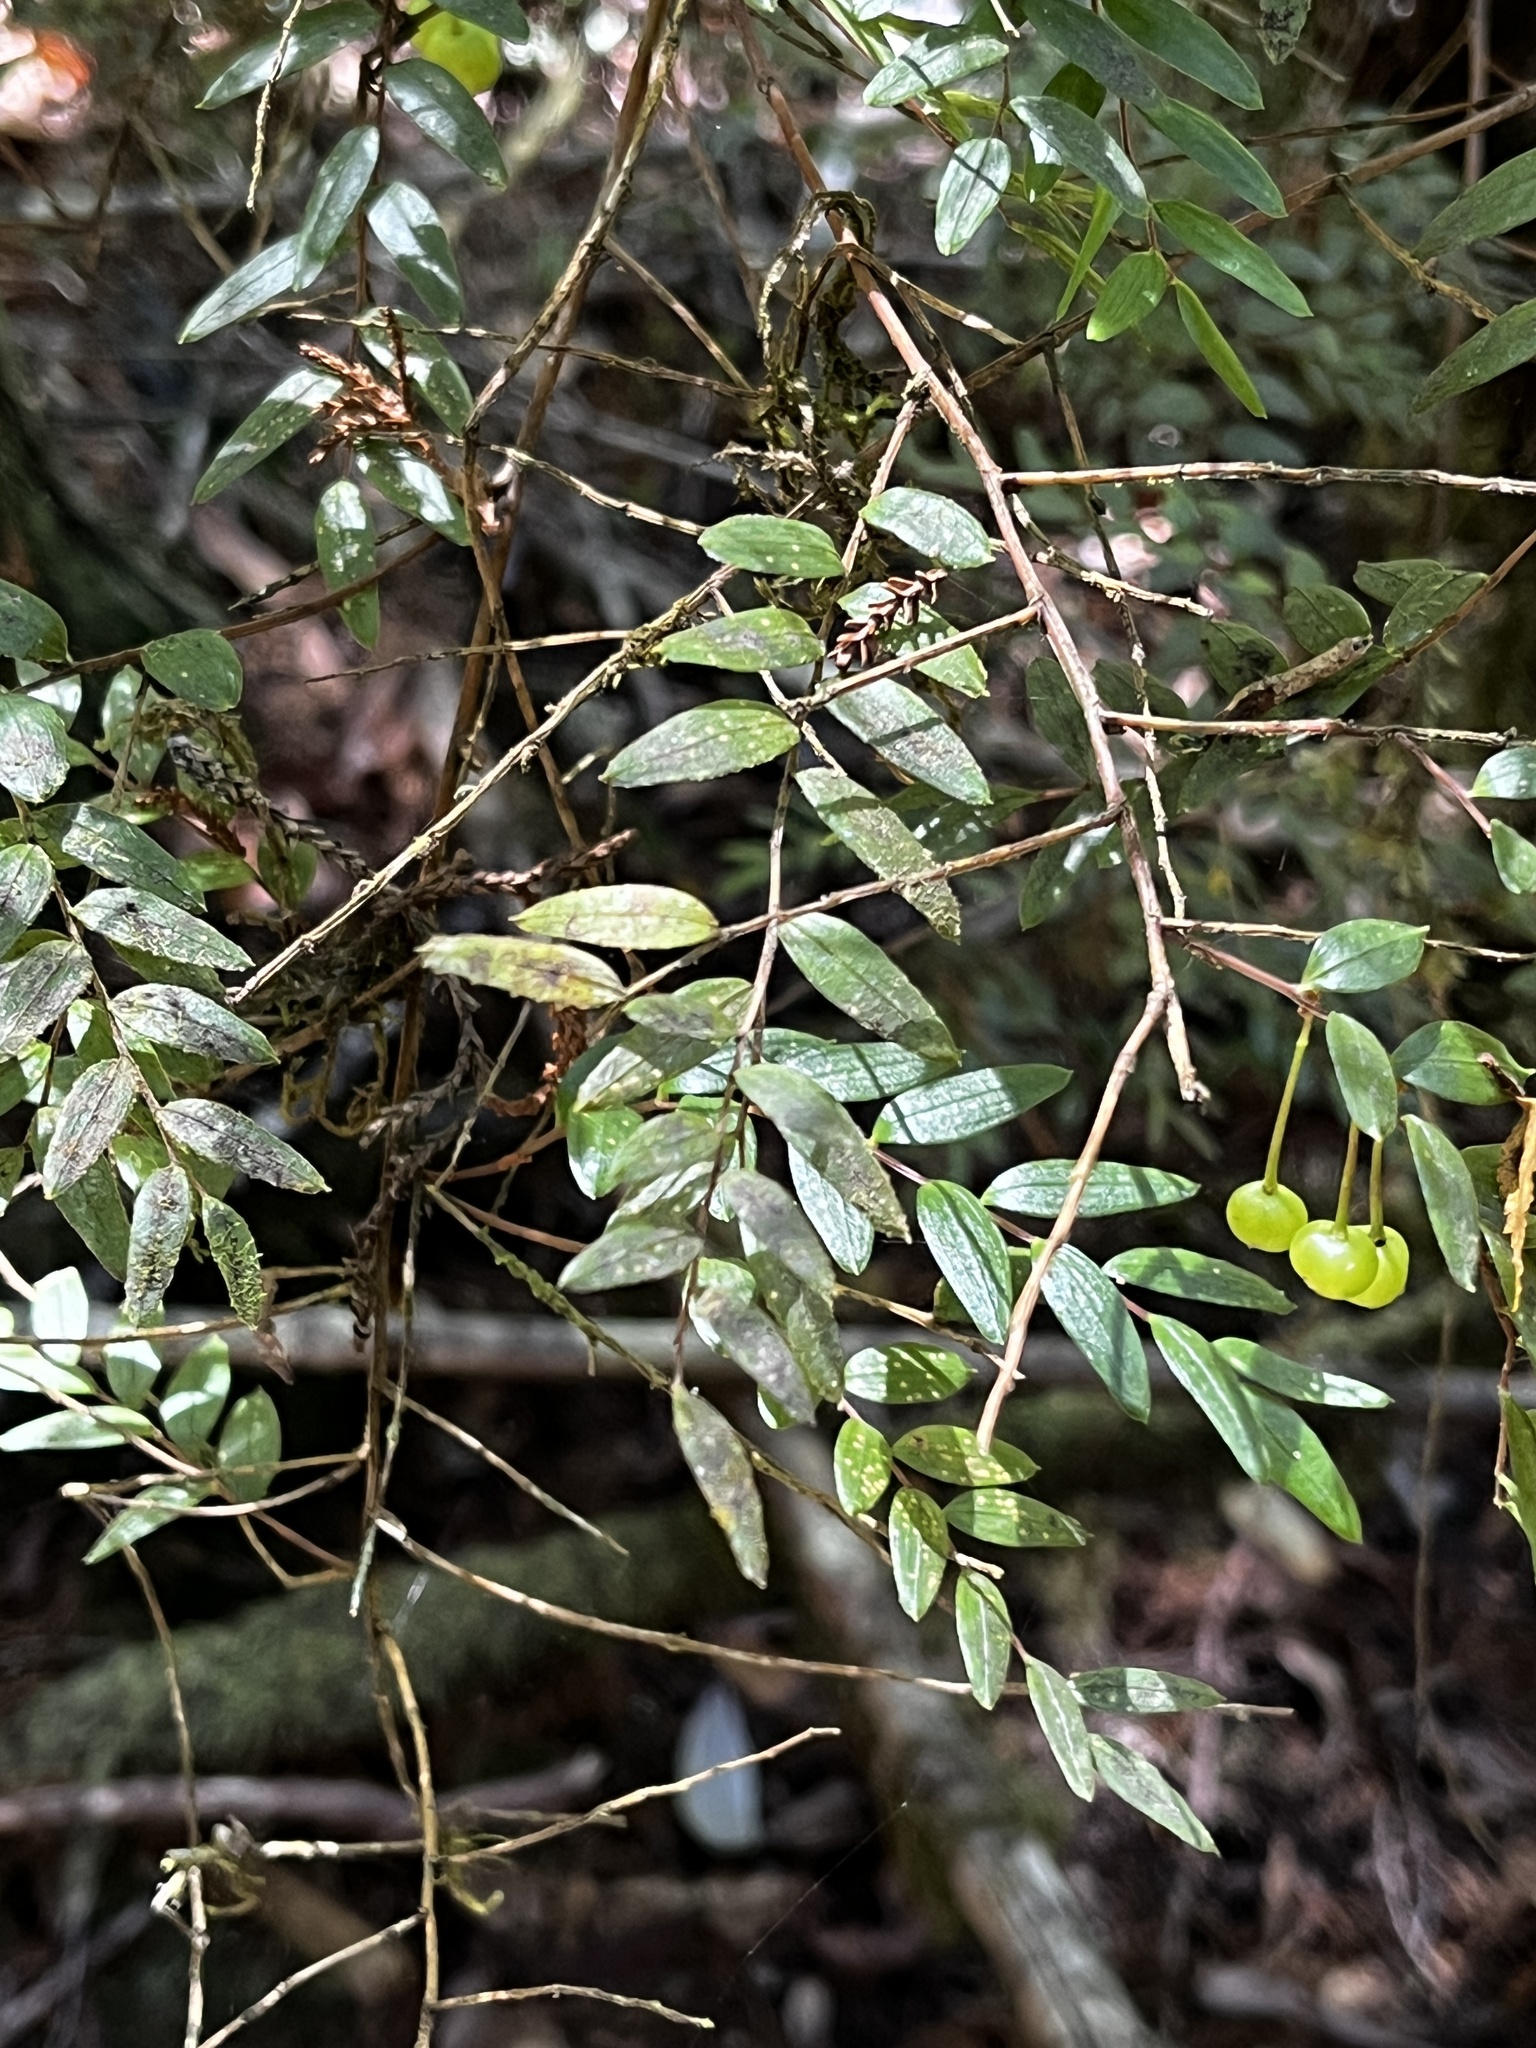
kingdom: Plantae
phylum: Tracheophyta
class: Liliopsida
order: Liliales
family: Alstroemeriaceae
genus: Luzuriaga
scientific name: Luzuriaga polyphylla
